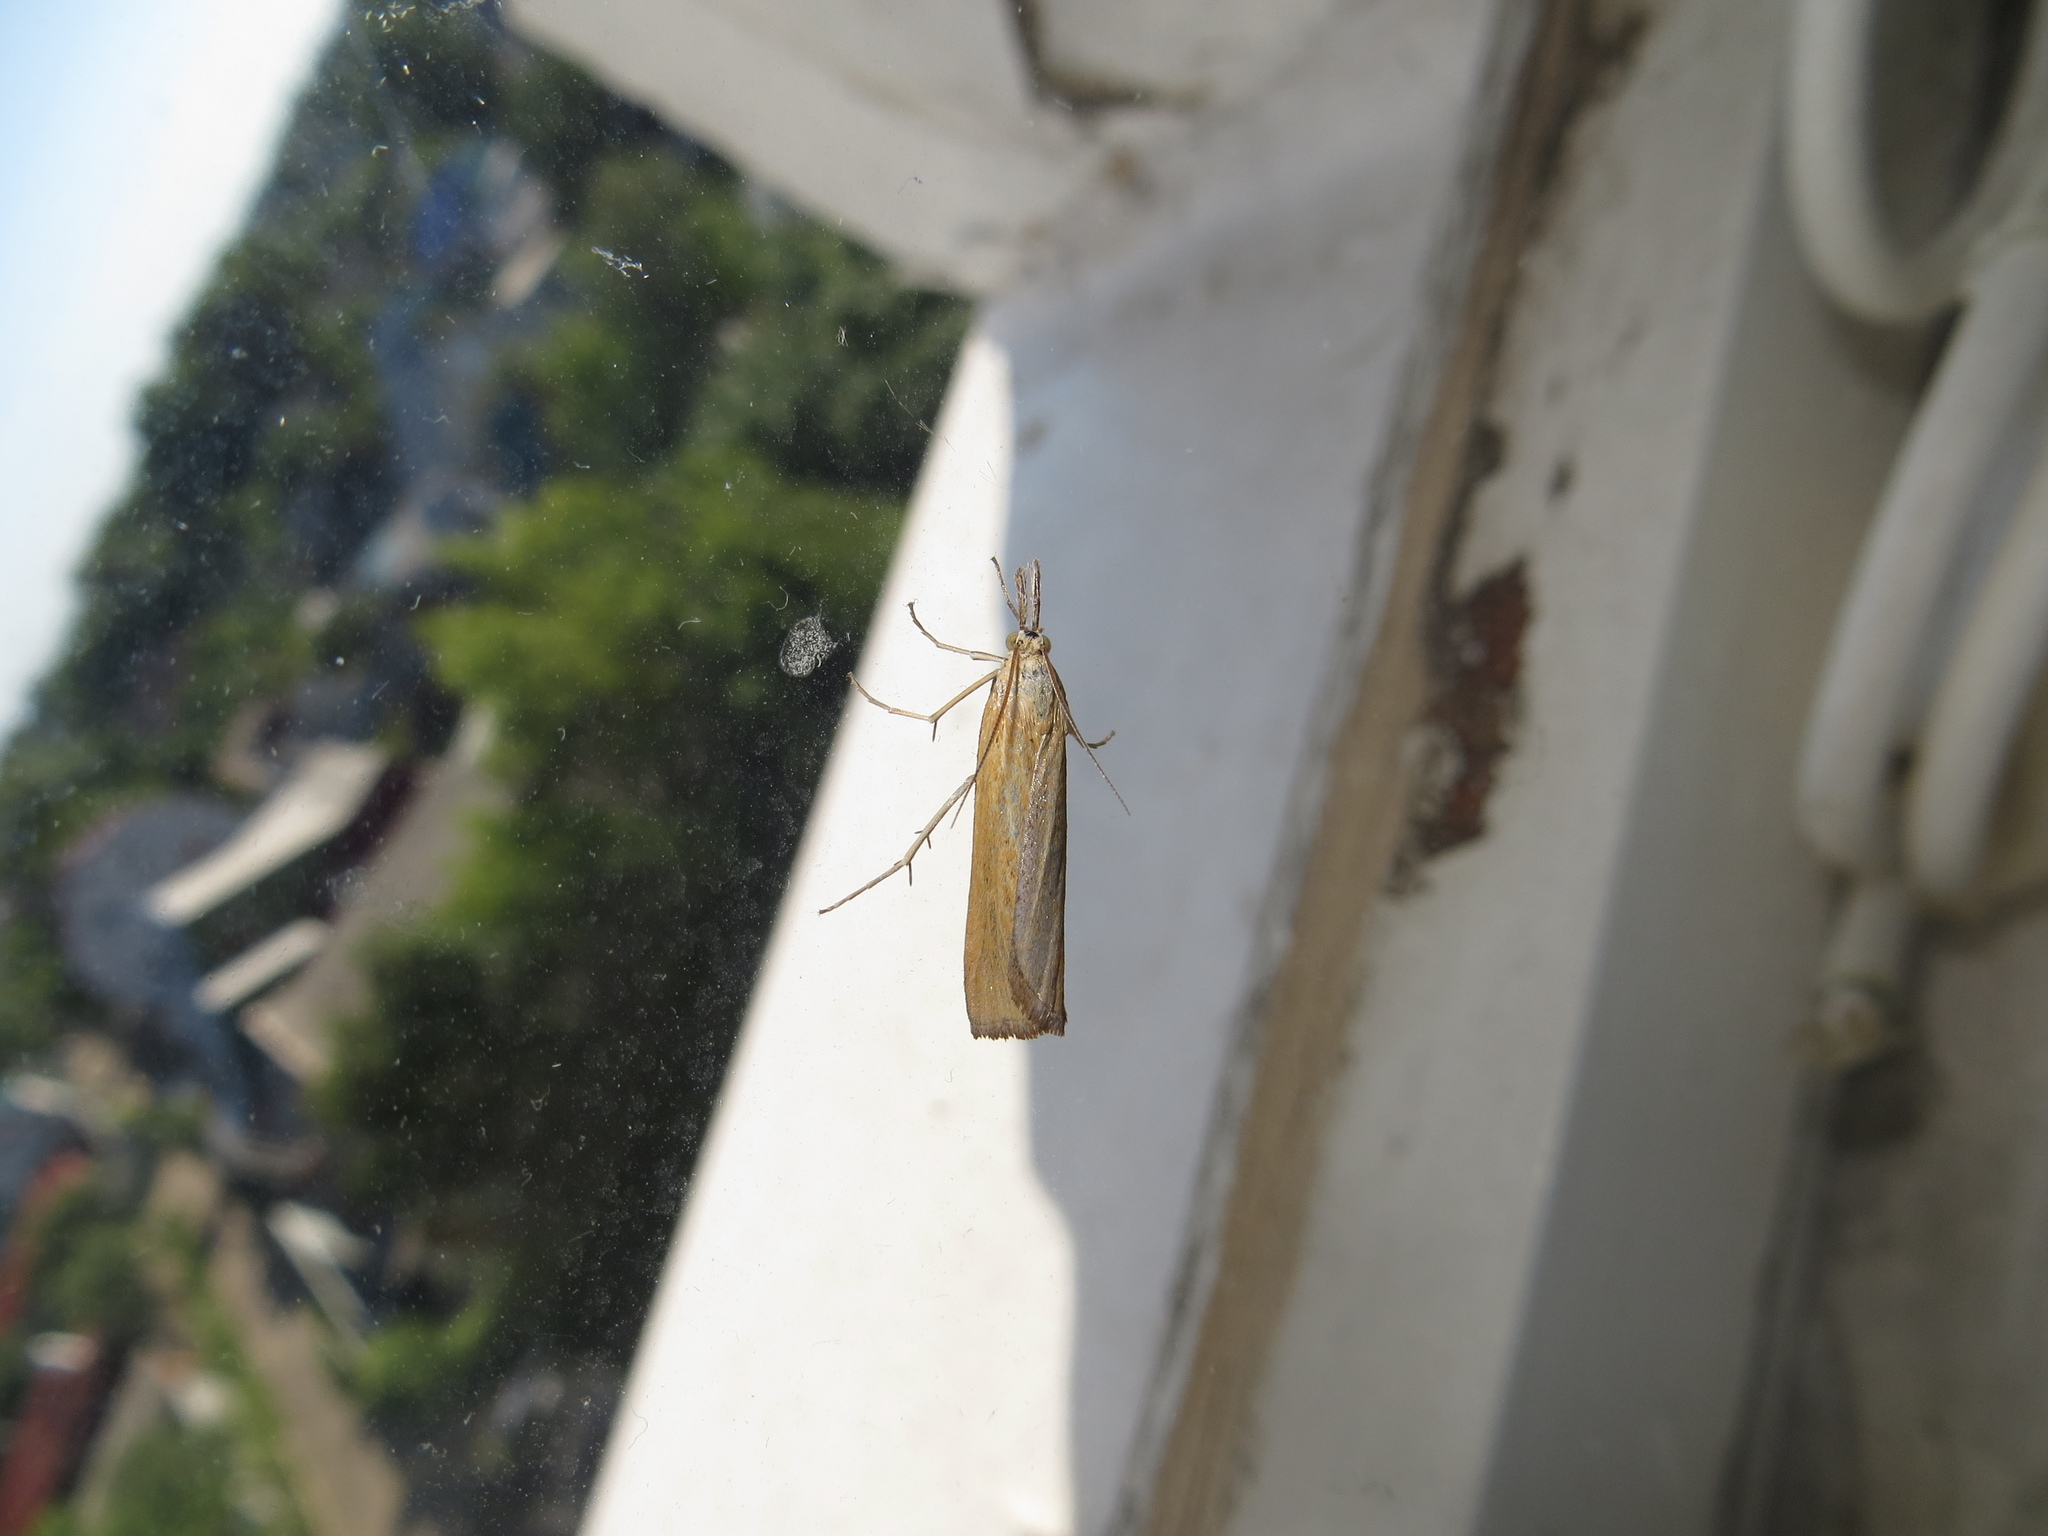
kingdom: Animalia
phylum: Arthropoda
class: Insecta
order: Lepidoptera
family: Crambidae
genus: Pediasia
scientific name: Pediasia luteella
